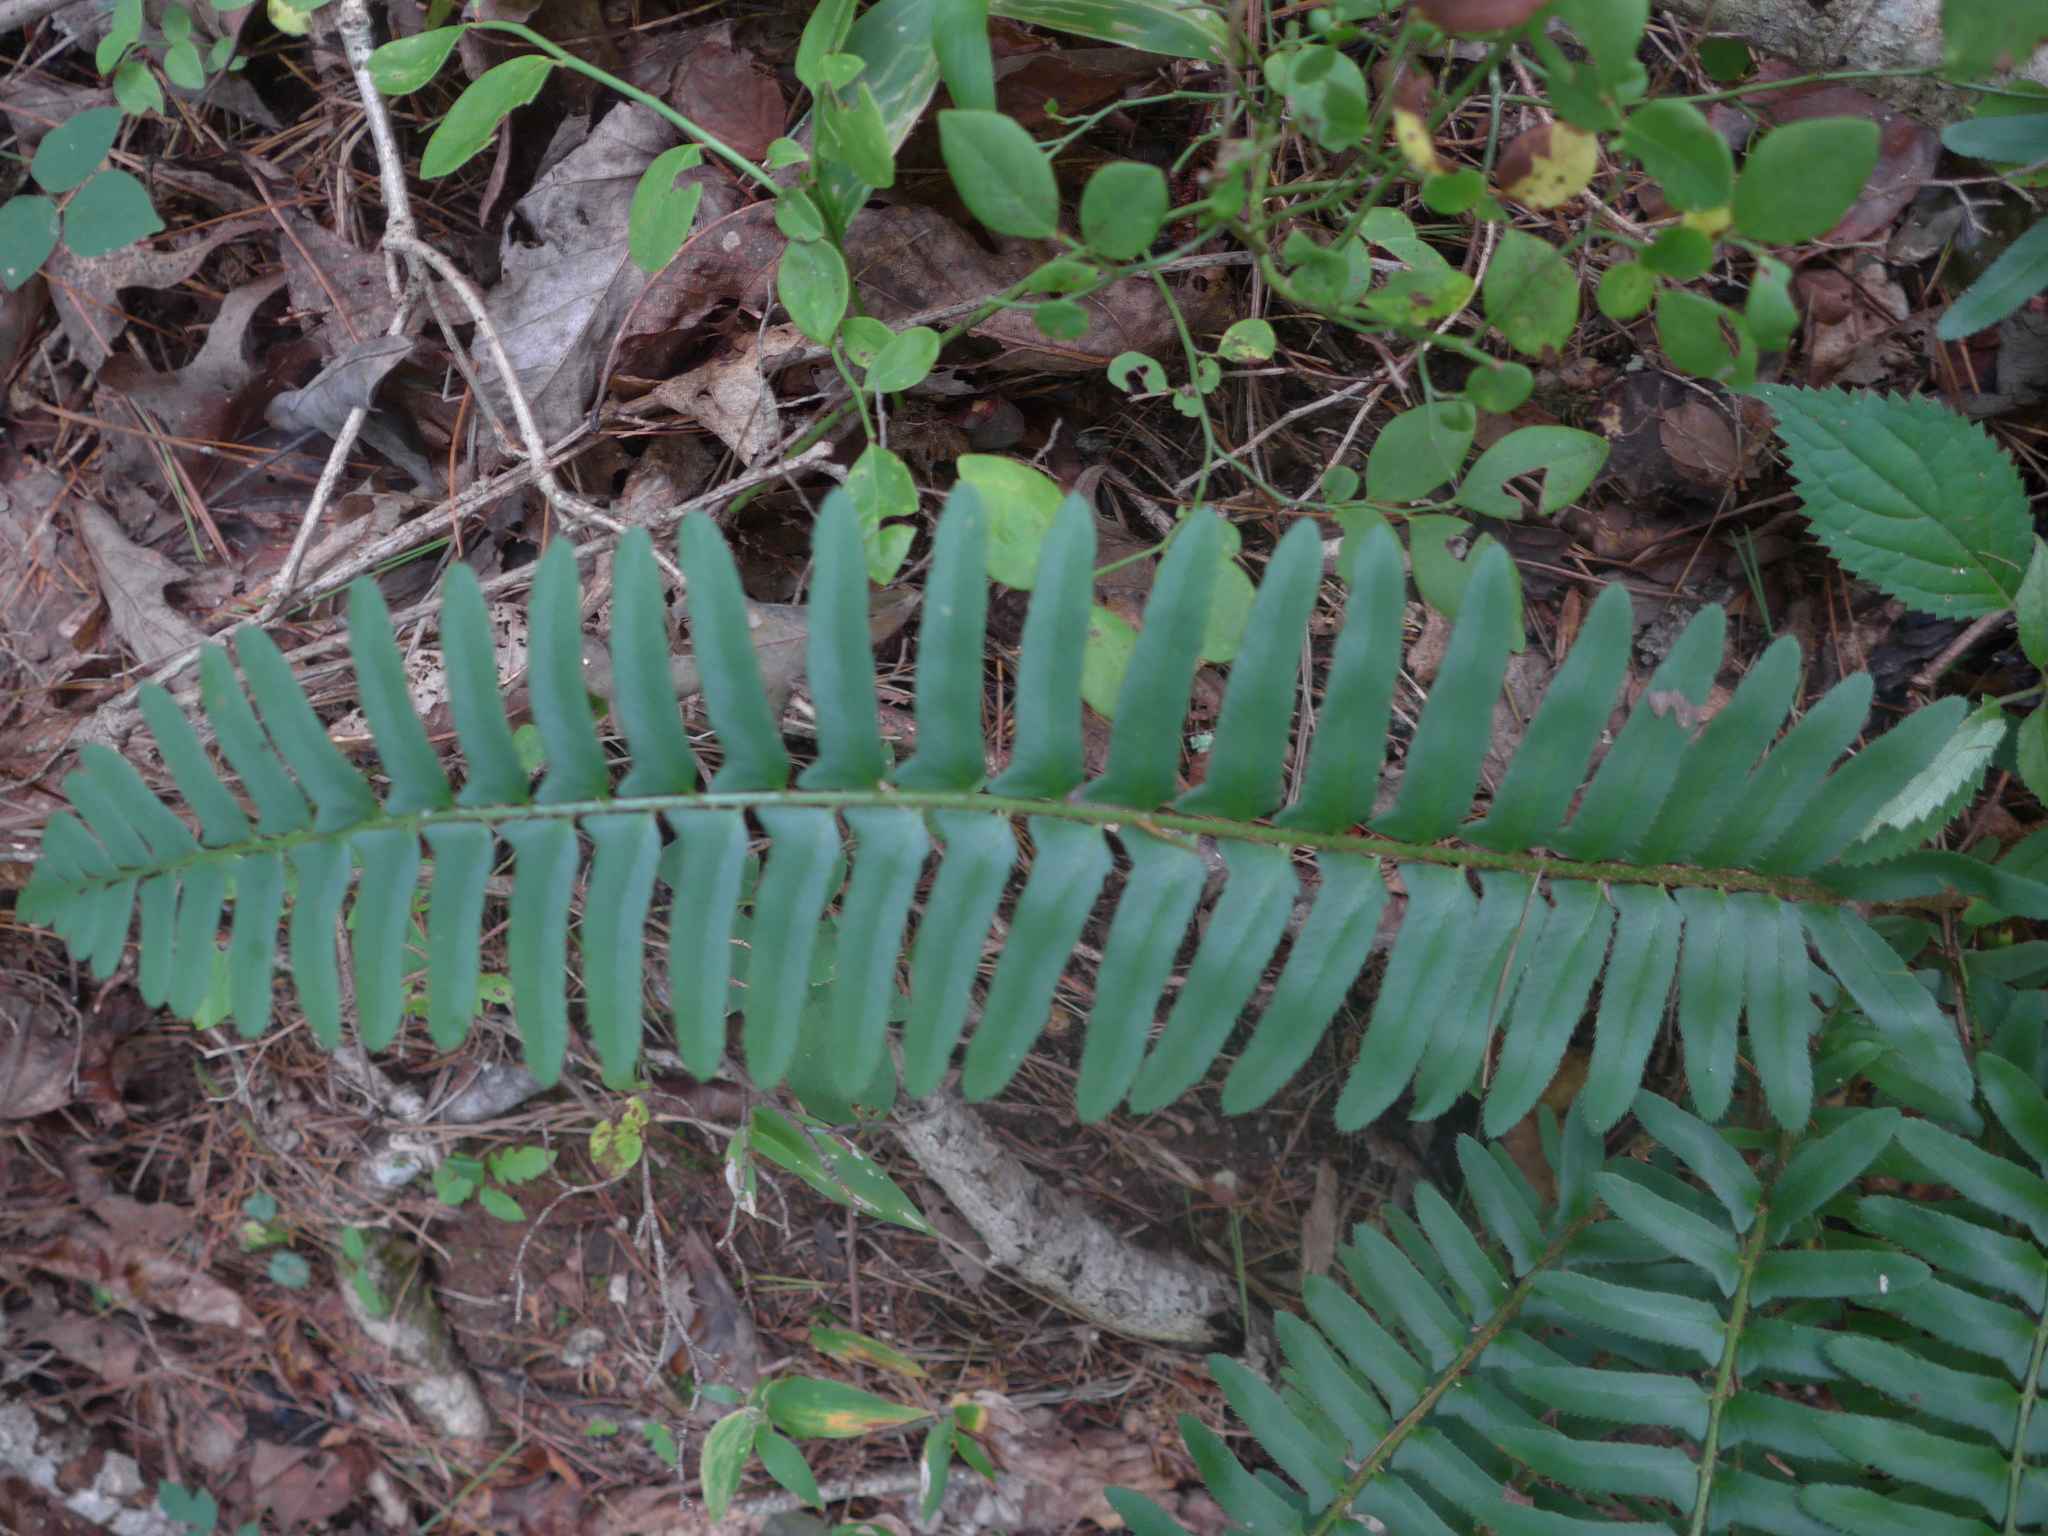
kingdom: Plantae
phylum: Tracheophyta
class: Polypodiopsida
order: Polypodiales
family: Dryopteridaceae
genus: Polystichum
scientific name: Polystichum acrostichoides
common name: Christmas fern
